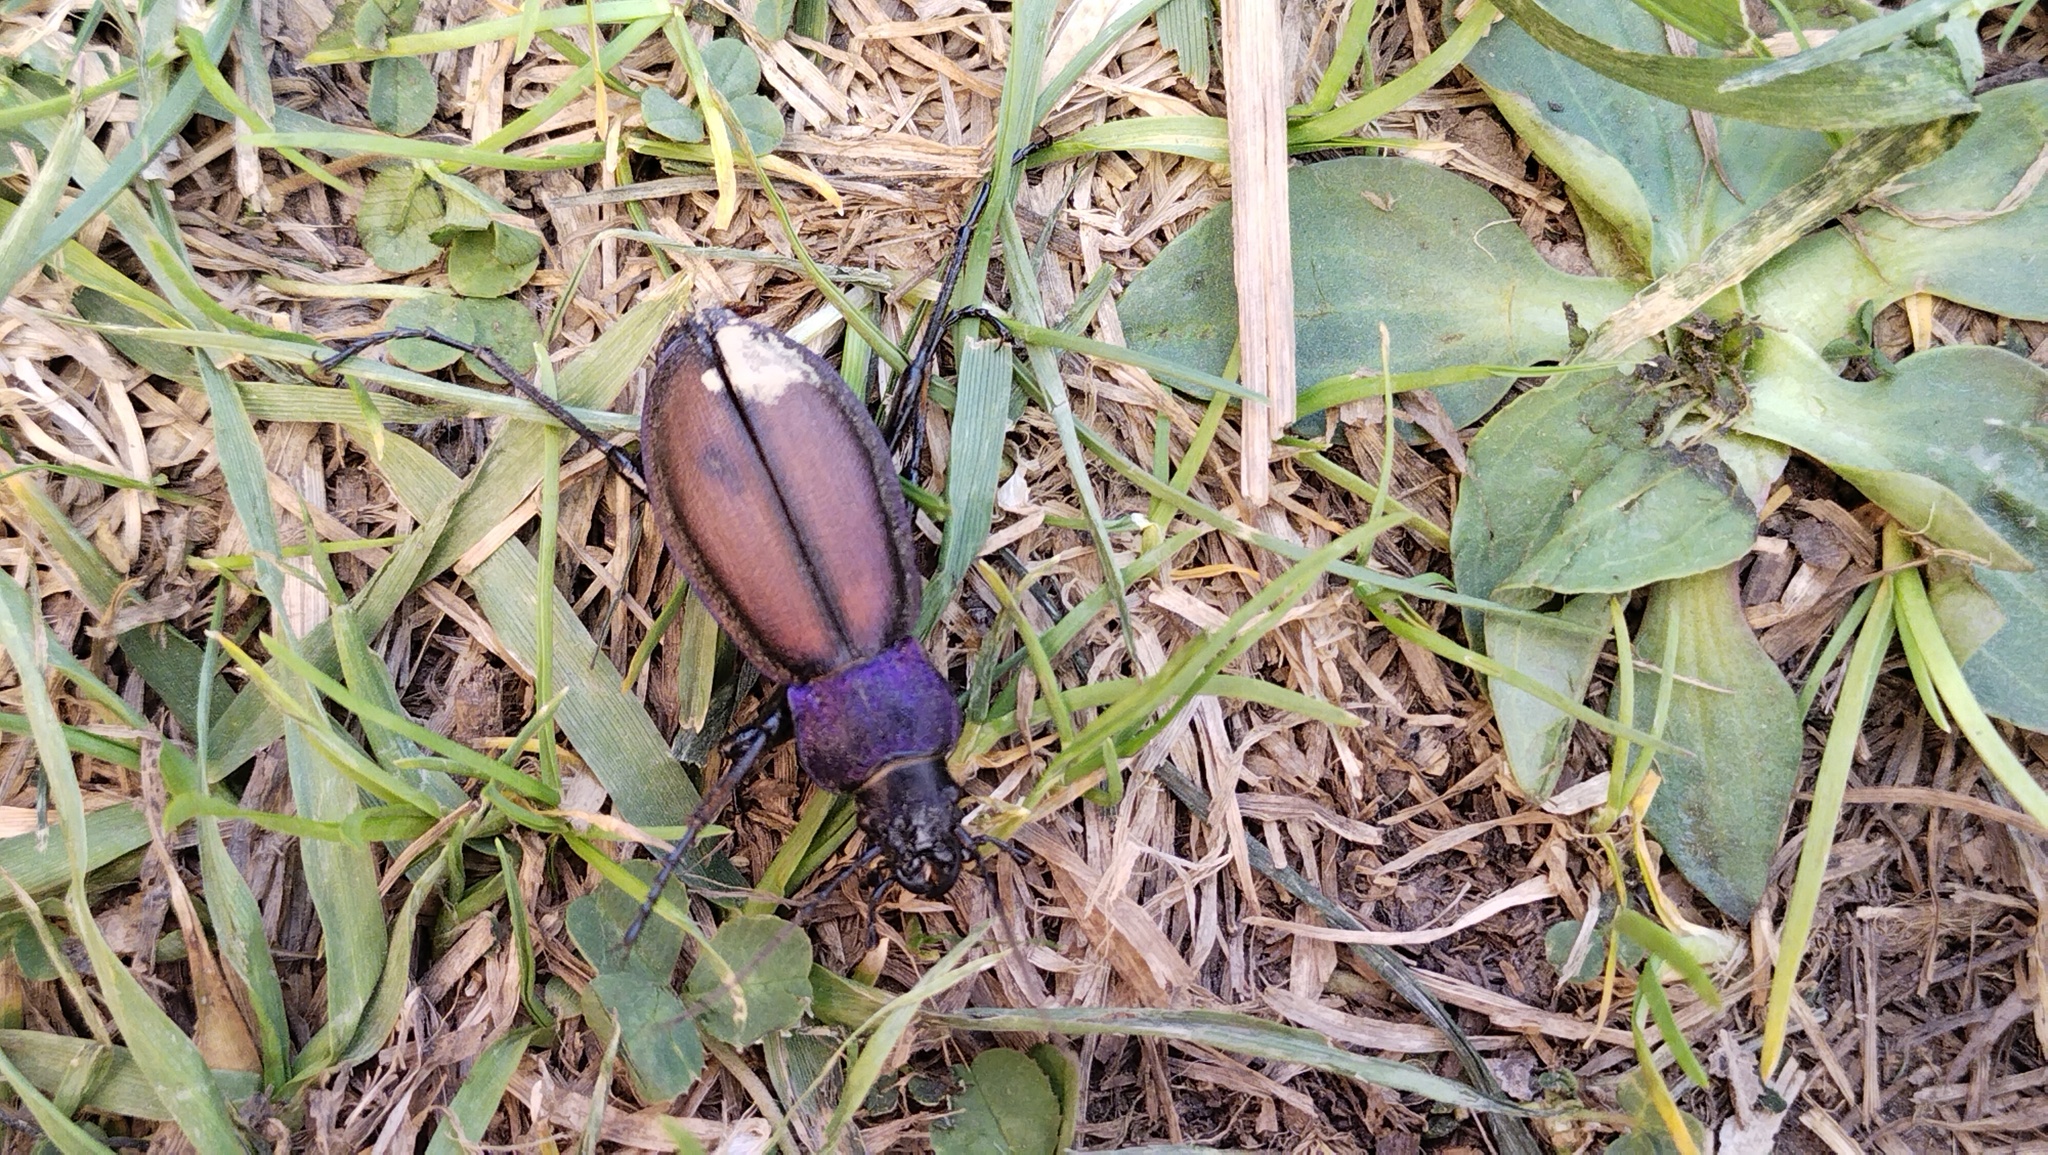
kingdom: Animalia
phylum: Arthropoda
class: Insecta
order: Coleoptera
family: Carabidae
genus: Carabus
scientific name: Carabus schoenherri
